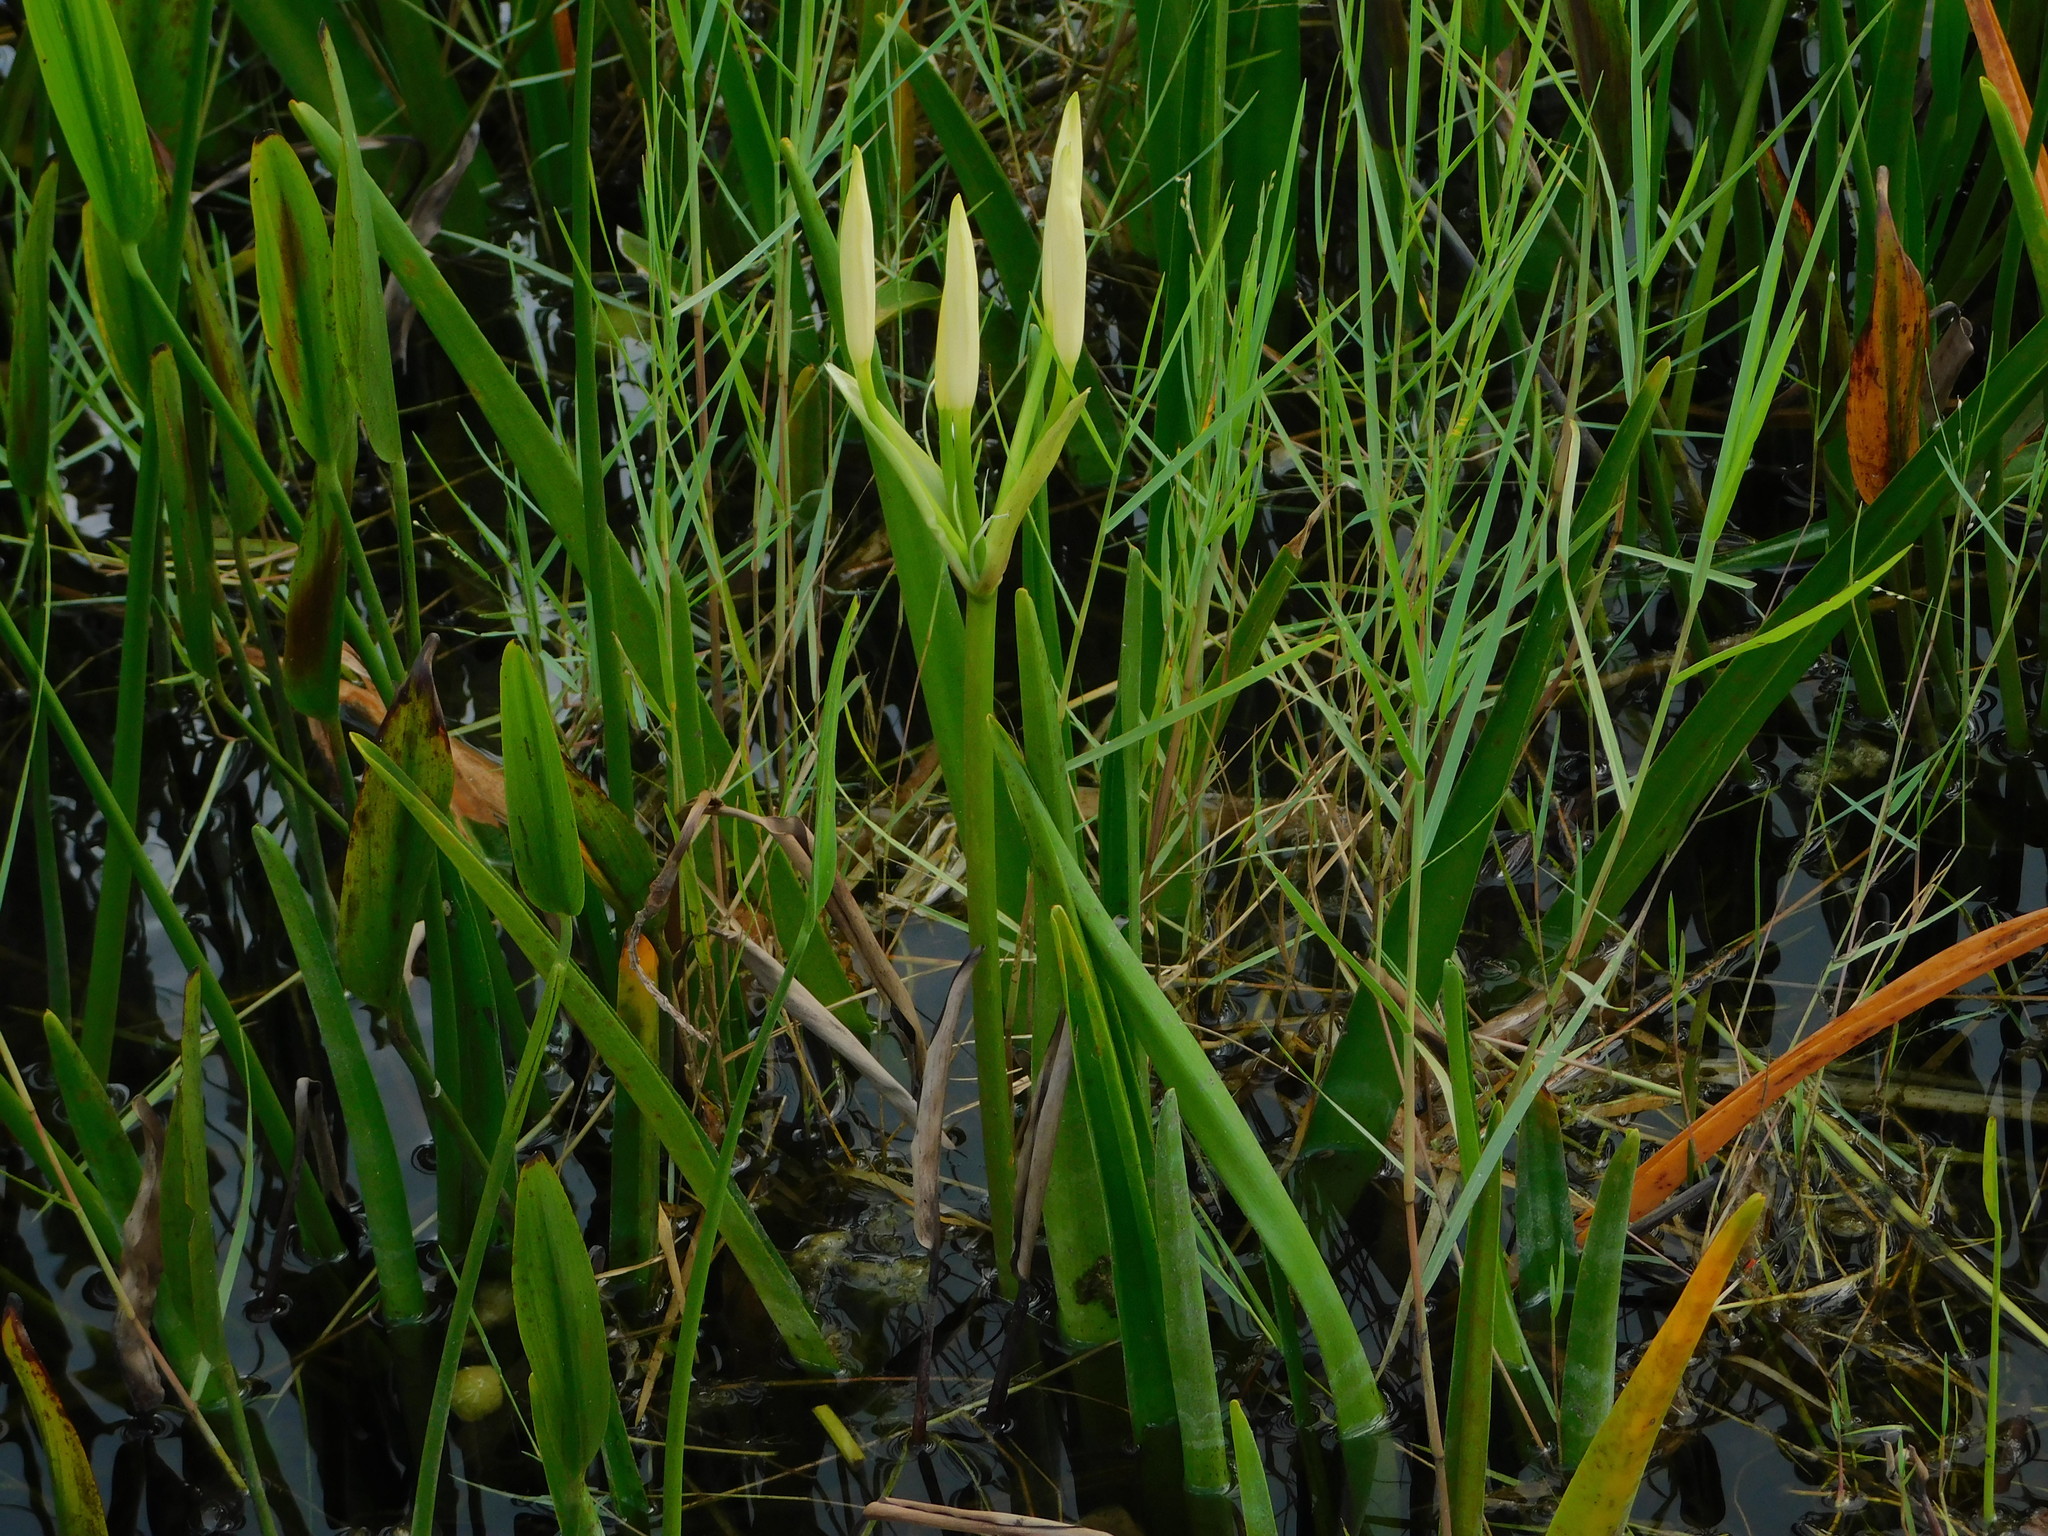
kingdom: Plantae
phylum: Tracheophyta
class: Liliopsida
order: Asparagales
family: Amaryllidaceae
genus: Crinum
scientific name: Crinum americanum
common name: Florida swamp-lily
